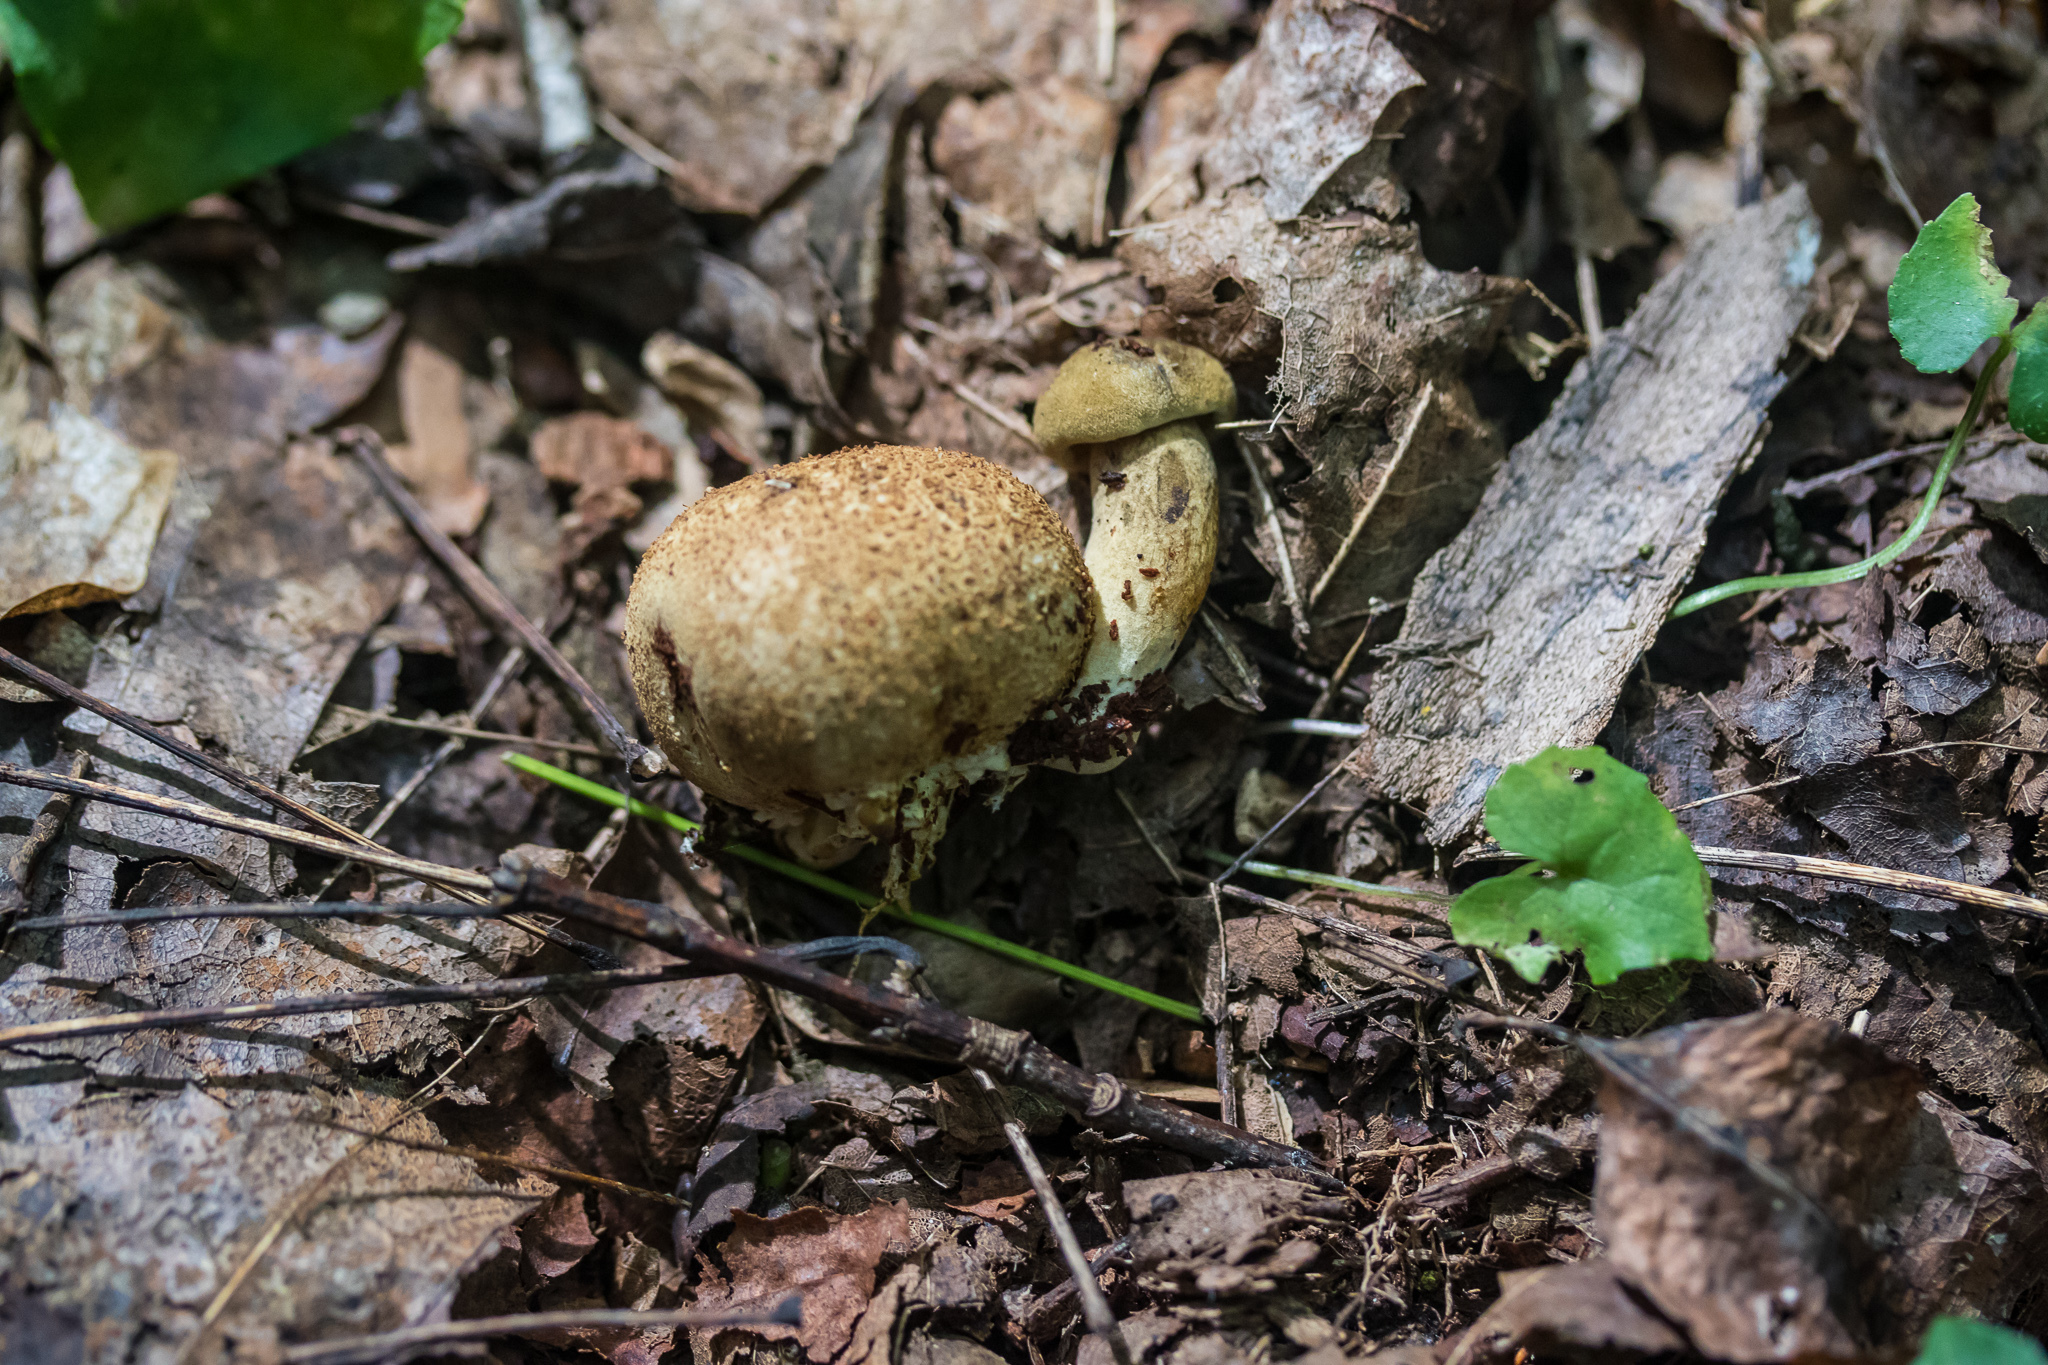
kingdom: Fungi
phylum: Basidiomycota
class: Agaricomycetes
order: Boletales
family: Boletaceae
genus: Pseudoboletus
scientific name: Pseudoboletus parasiticus
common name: Parasitic bolete
